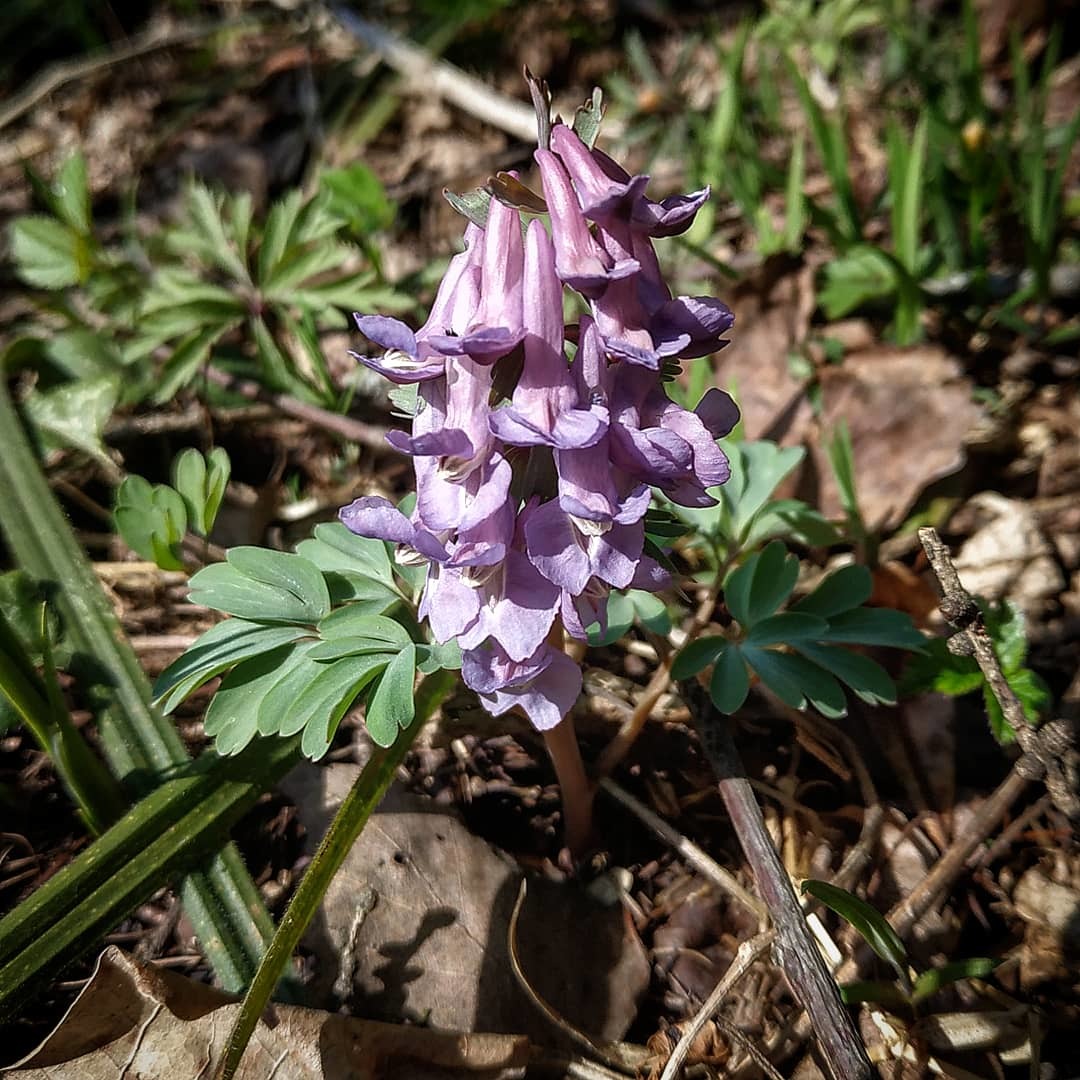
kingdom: Plantae
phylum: Tracheophyta
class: Magnoliopsida
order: Ranunculales
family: Papaveraceae
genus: Corydalis
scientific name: Corydalis solida
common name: Bird-in-a-bush
